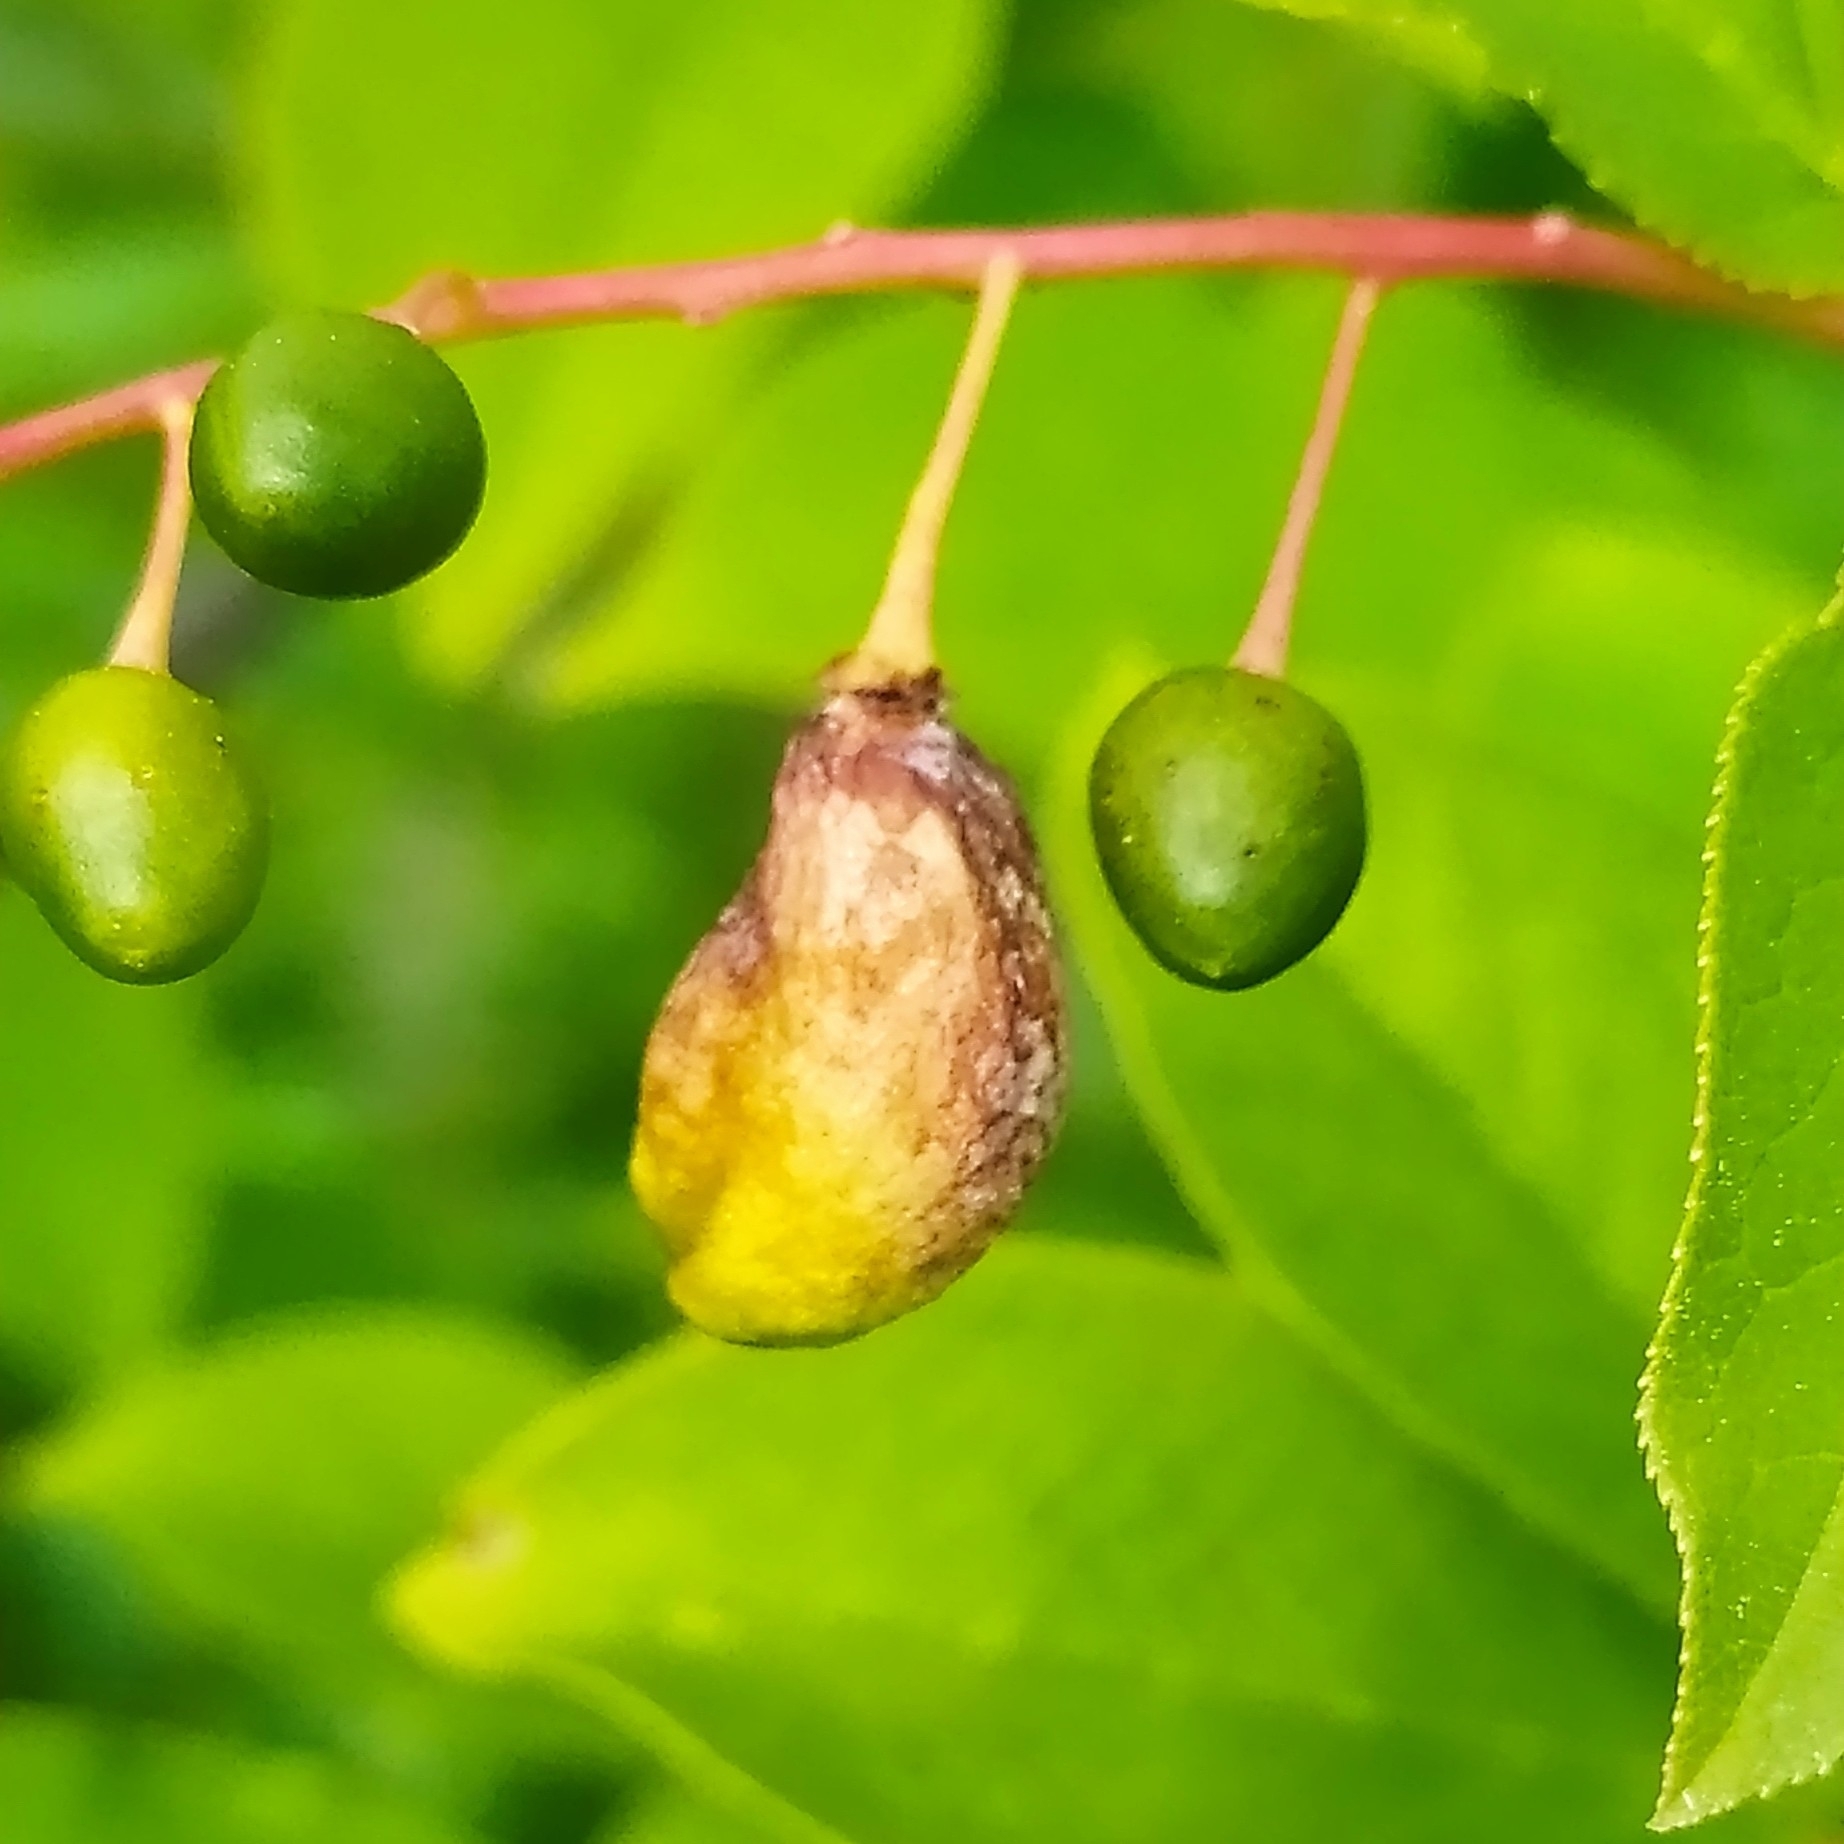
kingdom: Fungi
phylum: Ascomycota
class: Taphrinomycetes
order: Taphrinales
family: Taphrinaceae
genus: Taphrina
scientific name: Taphrina padi
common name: Bird cherry pocket
